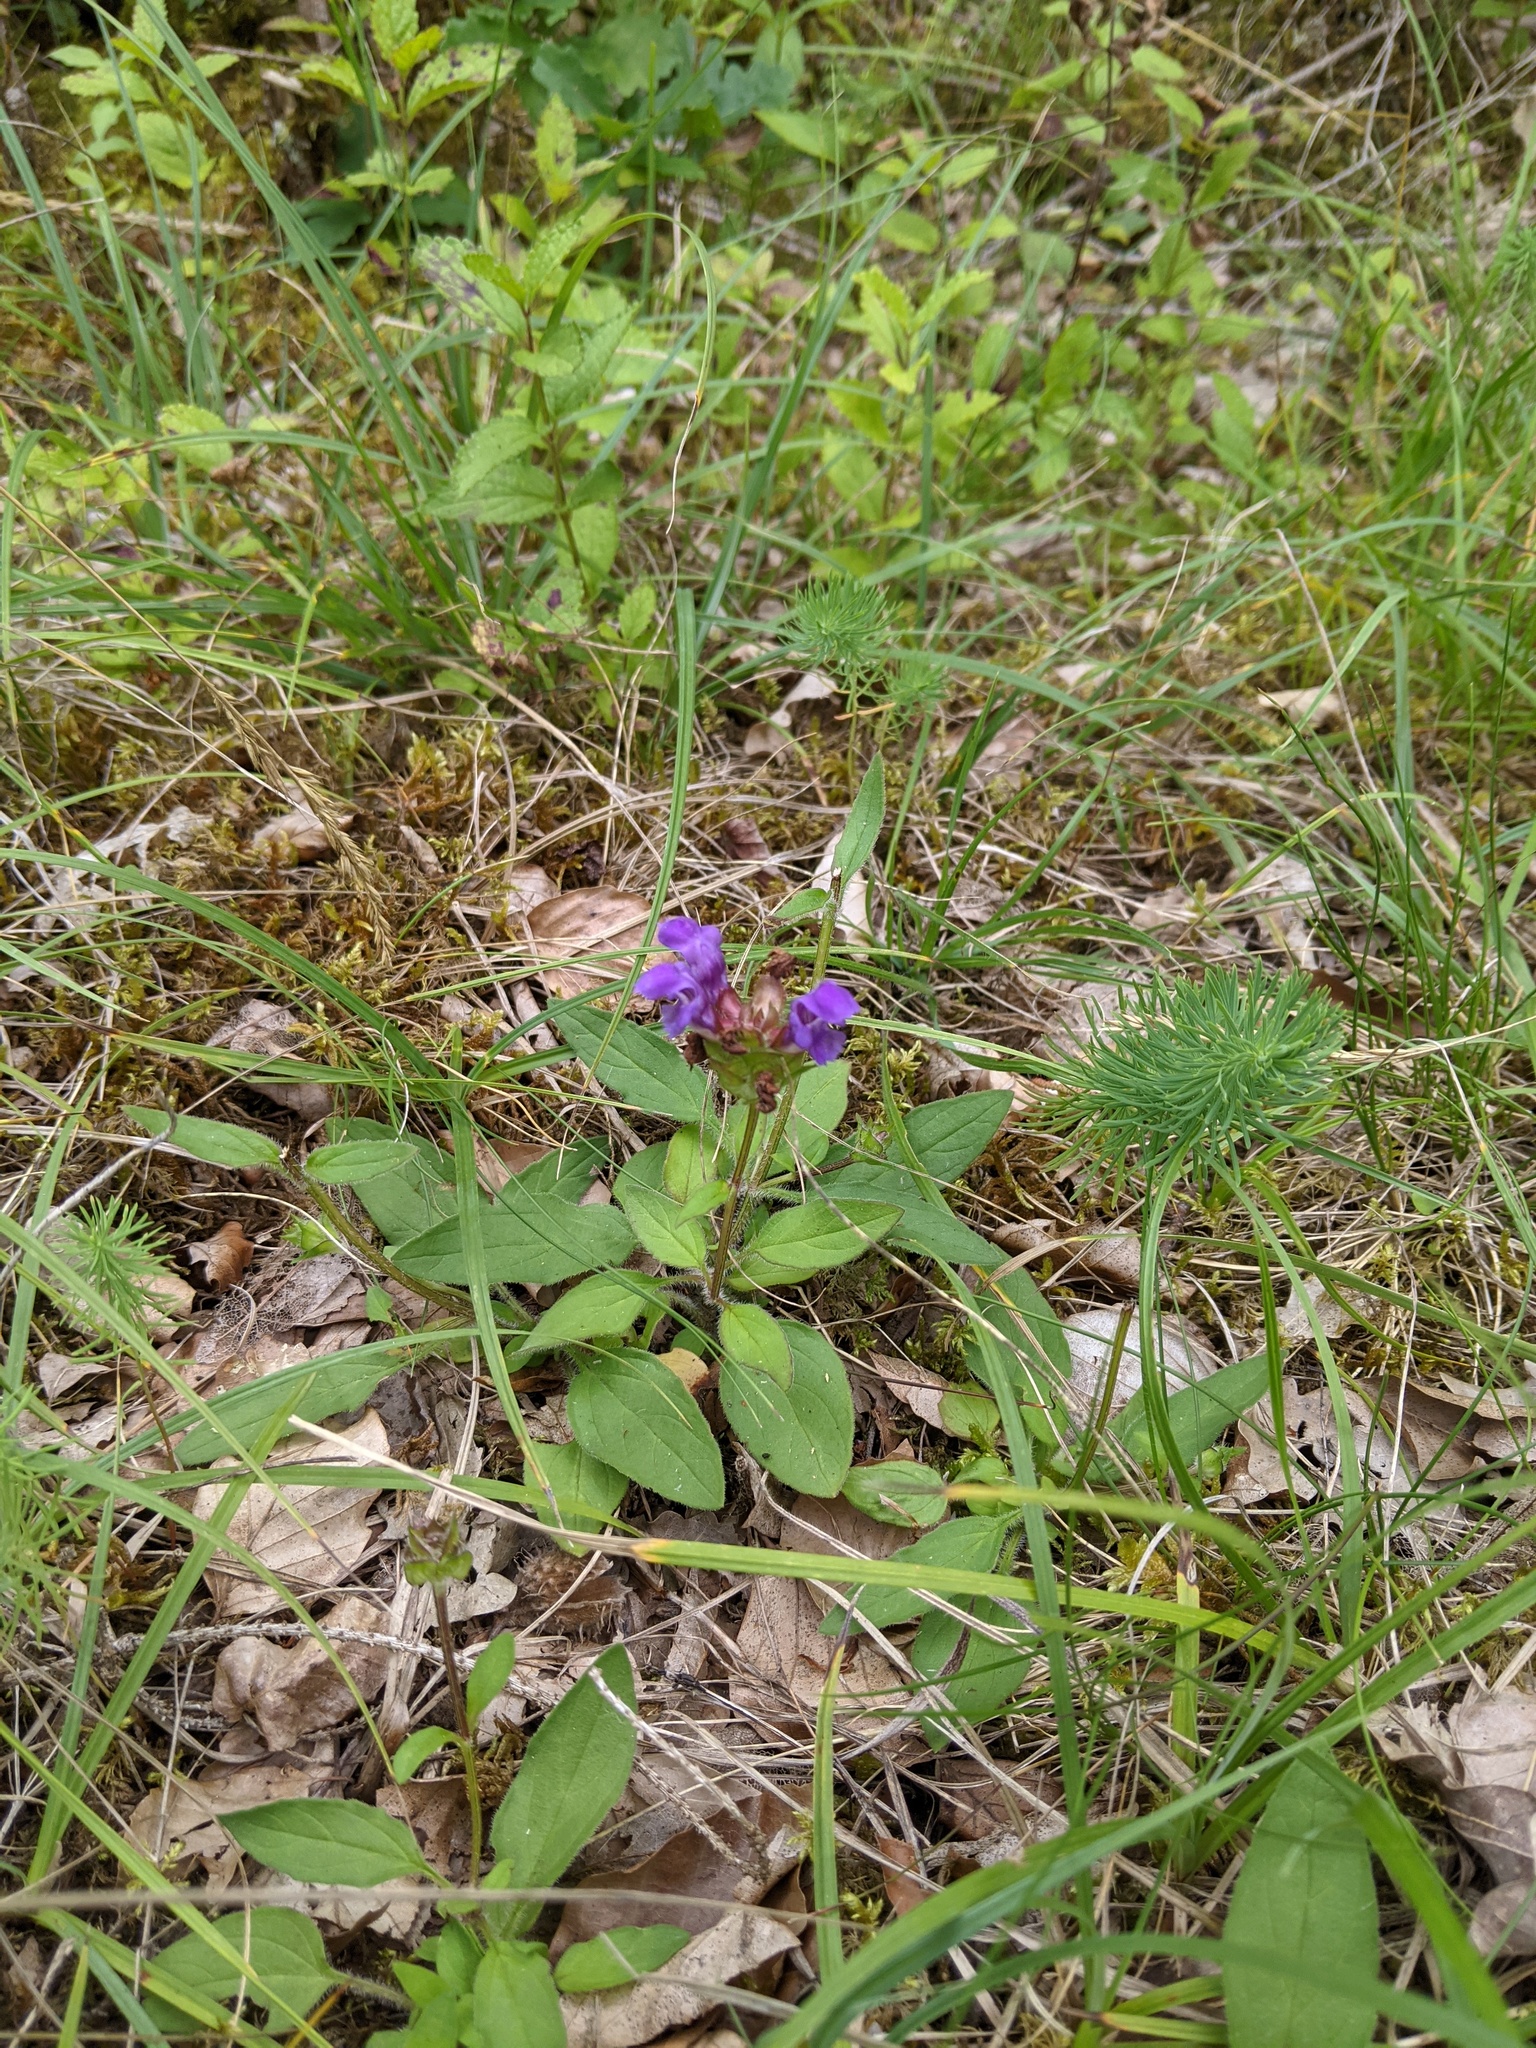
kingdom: Plantae
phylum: Tracheophyta
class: Magnoliopsida
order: Lamiales
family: Lamiaceae
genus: Prunella
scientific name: Prunella grandiflora
